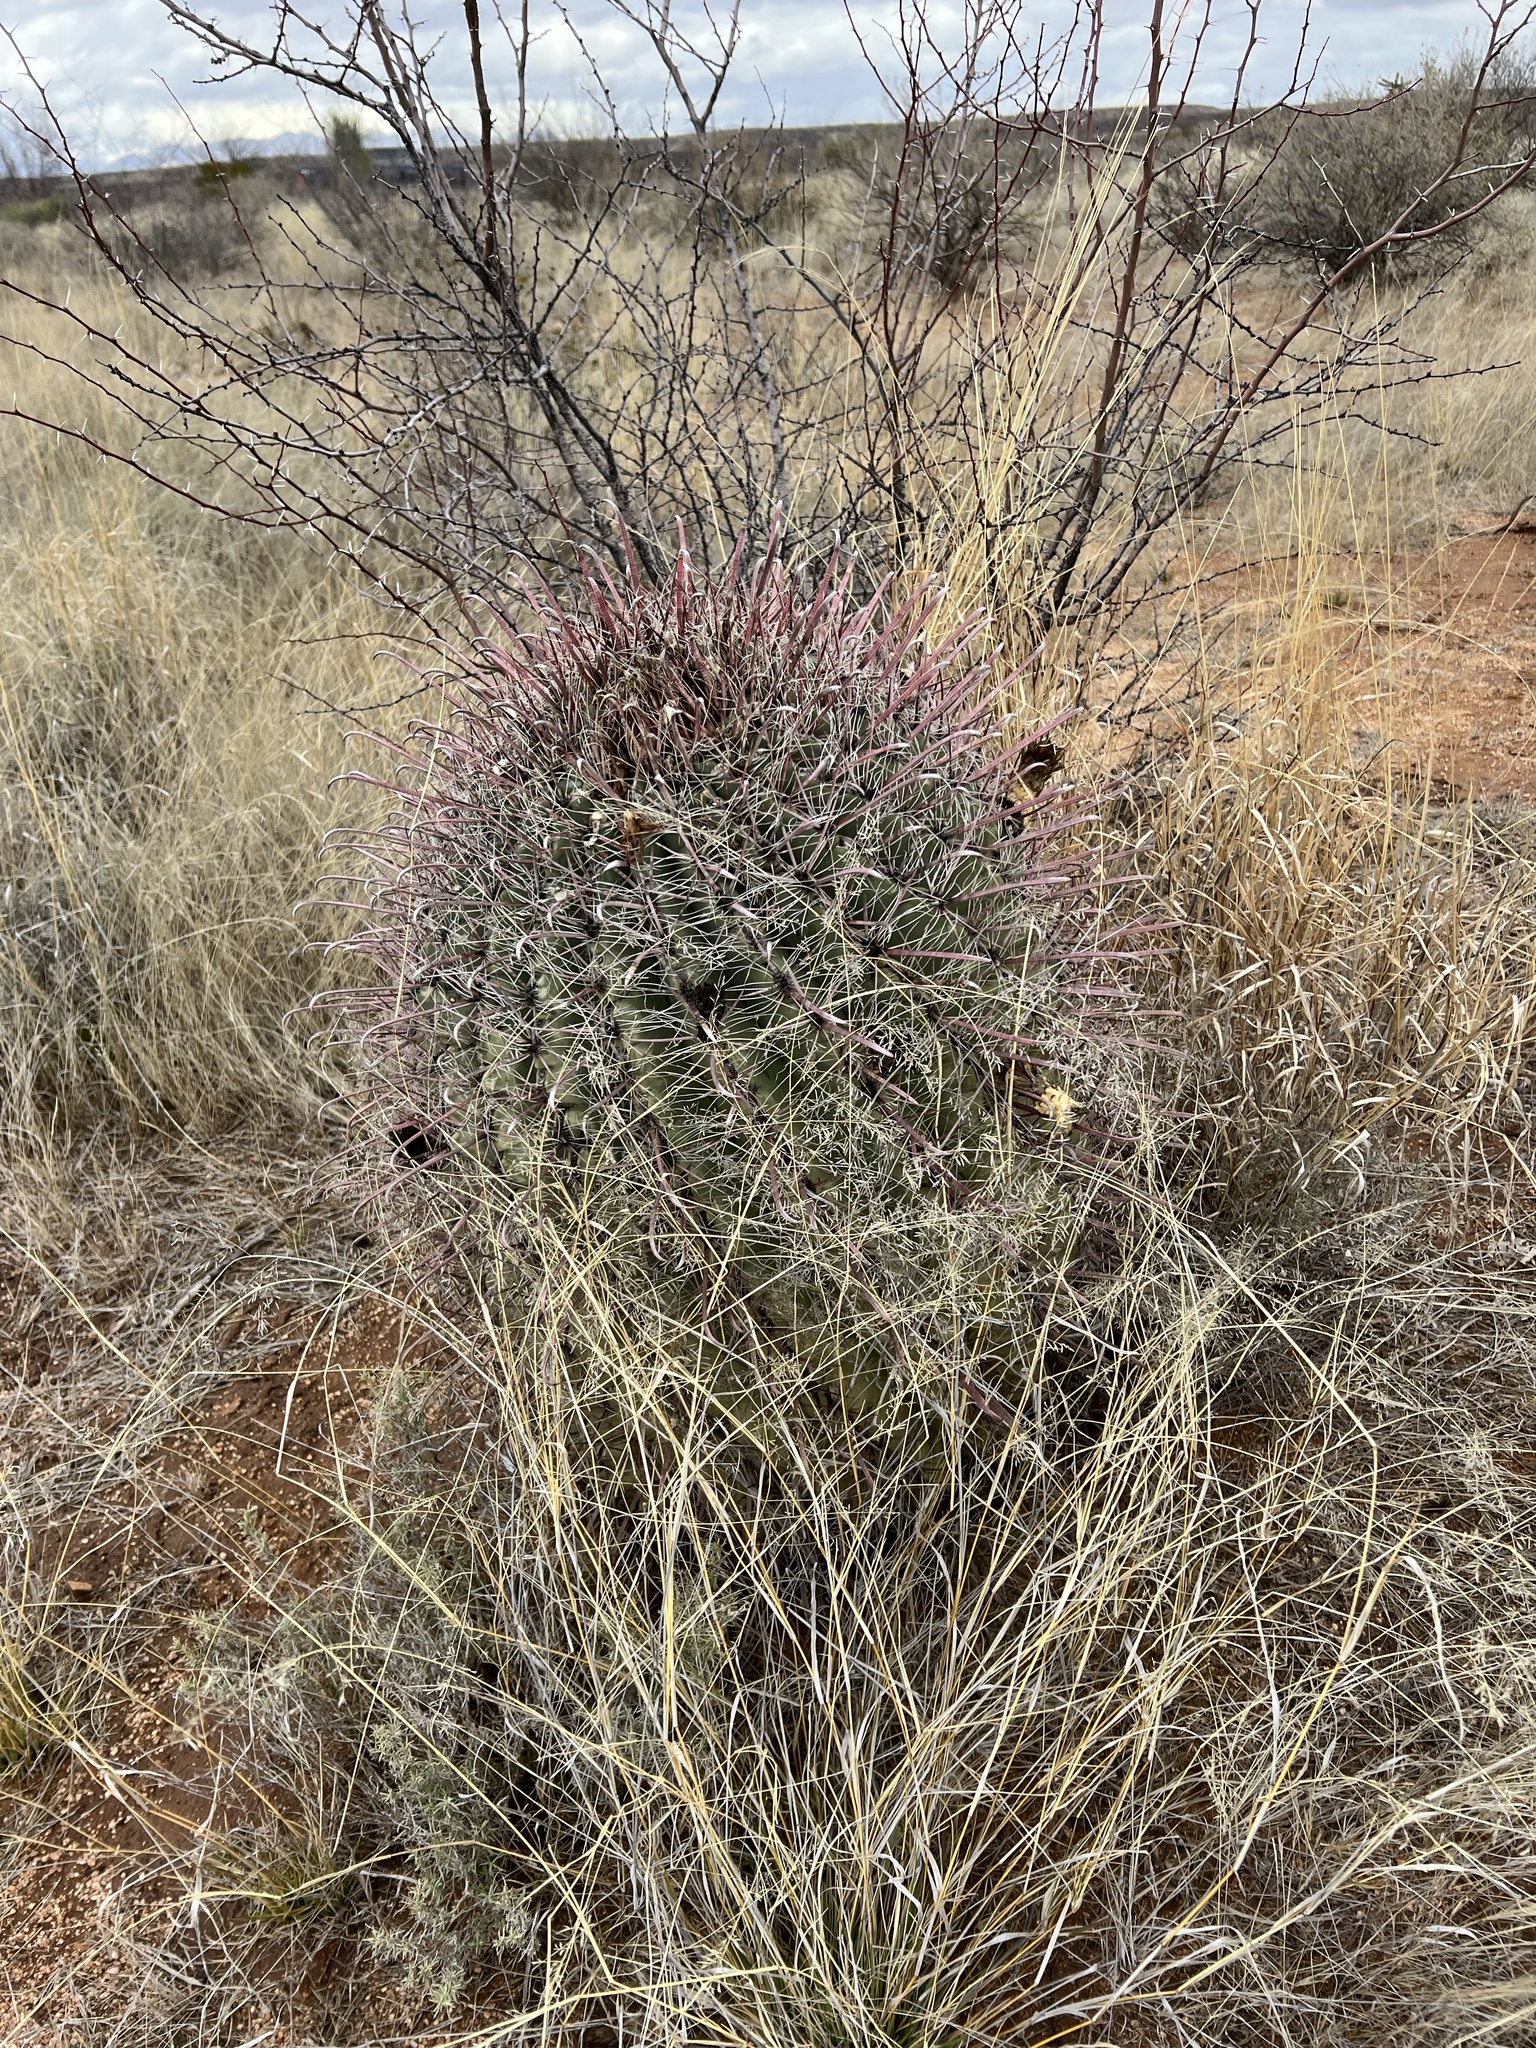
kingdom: Plantae
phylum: Tracheophyta
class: Magnoliopsida
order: Caryophyllales
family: Cactaceae
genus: Ferocactus
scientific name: Ferocactus wislizeni
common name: Candy barrel cactus
